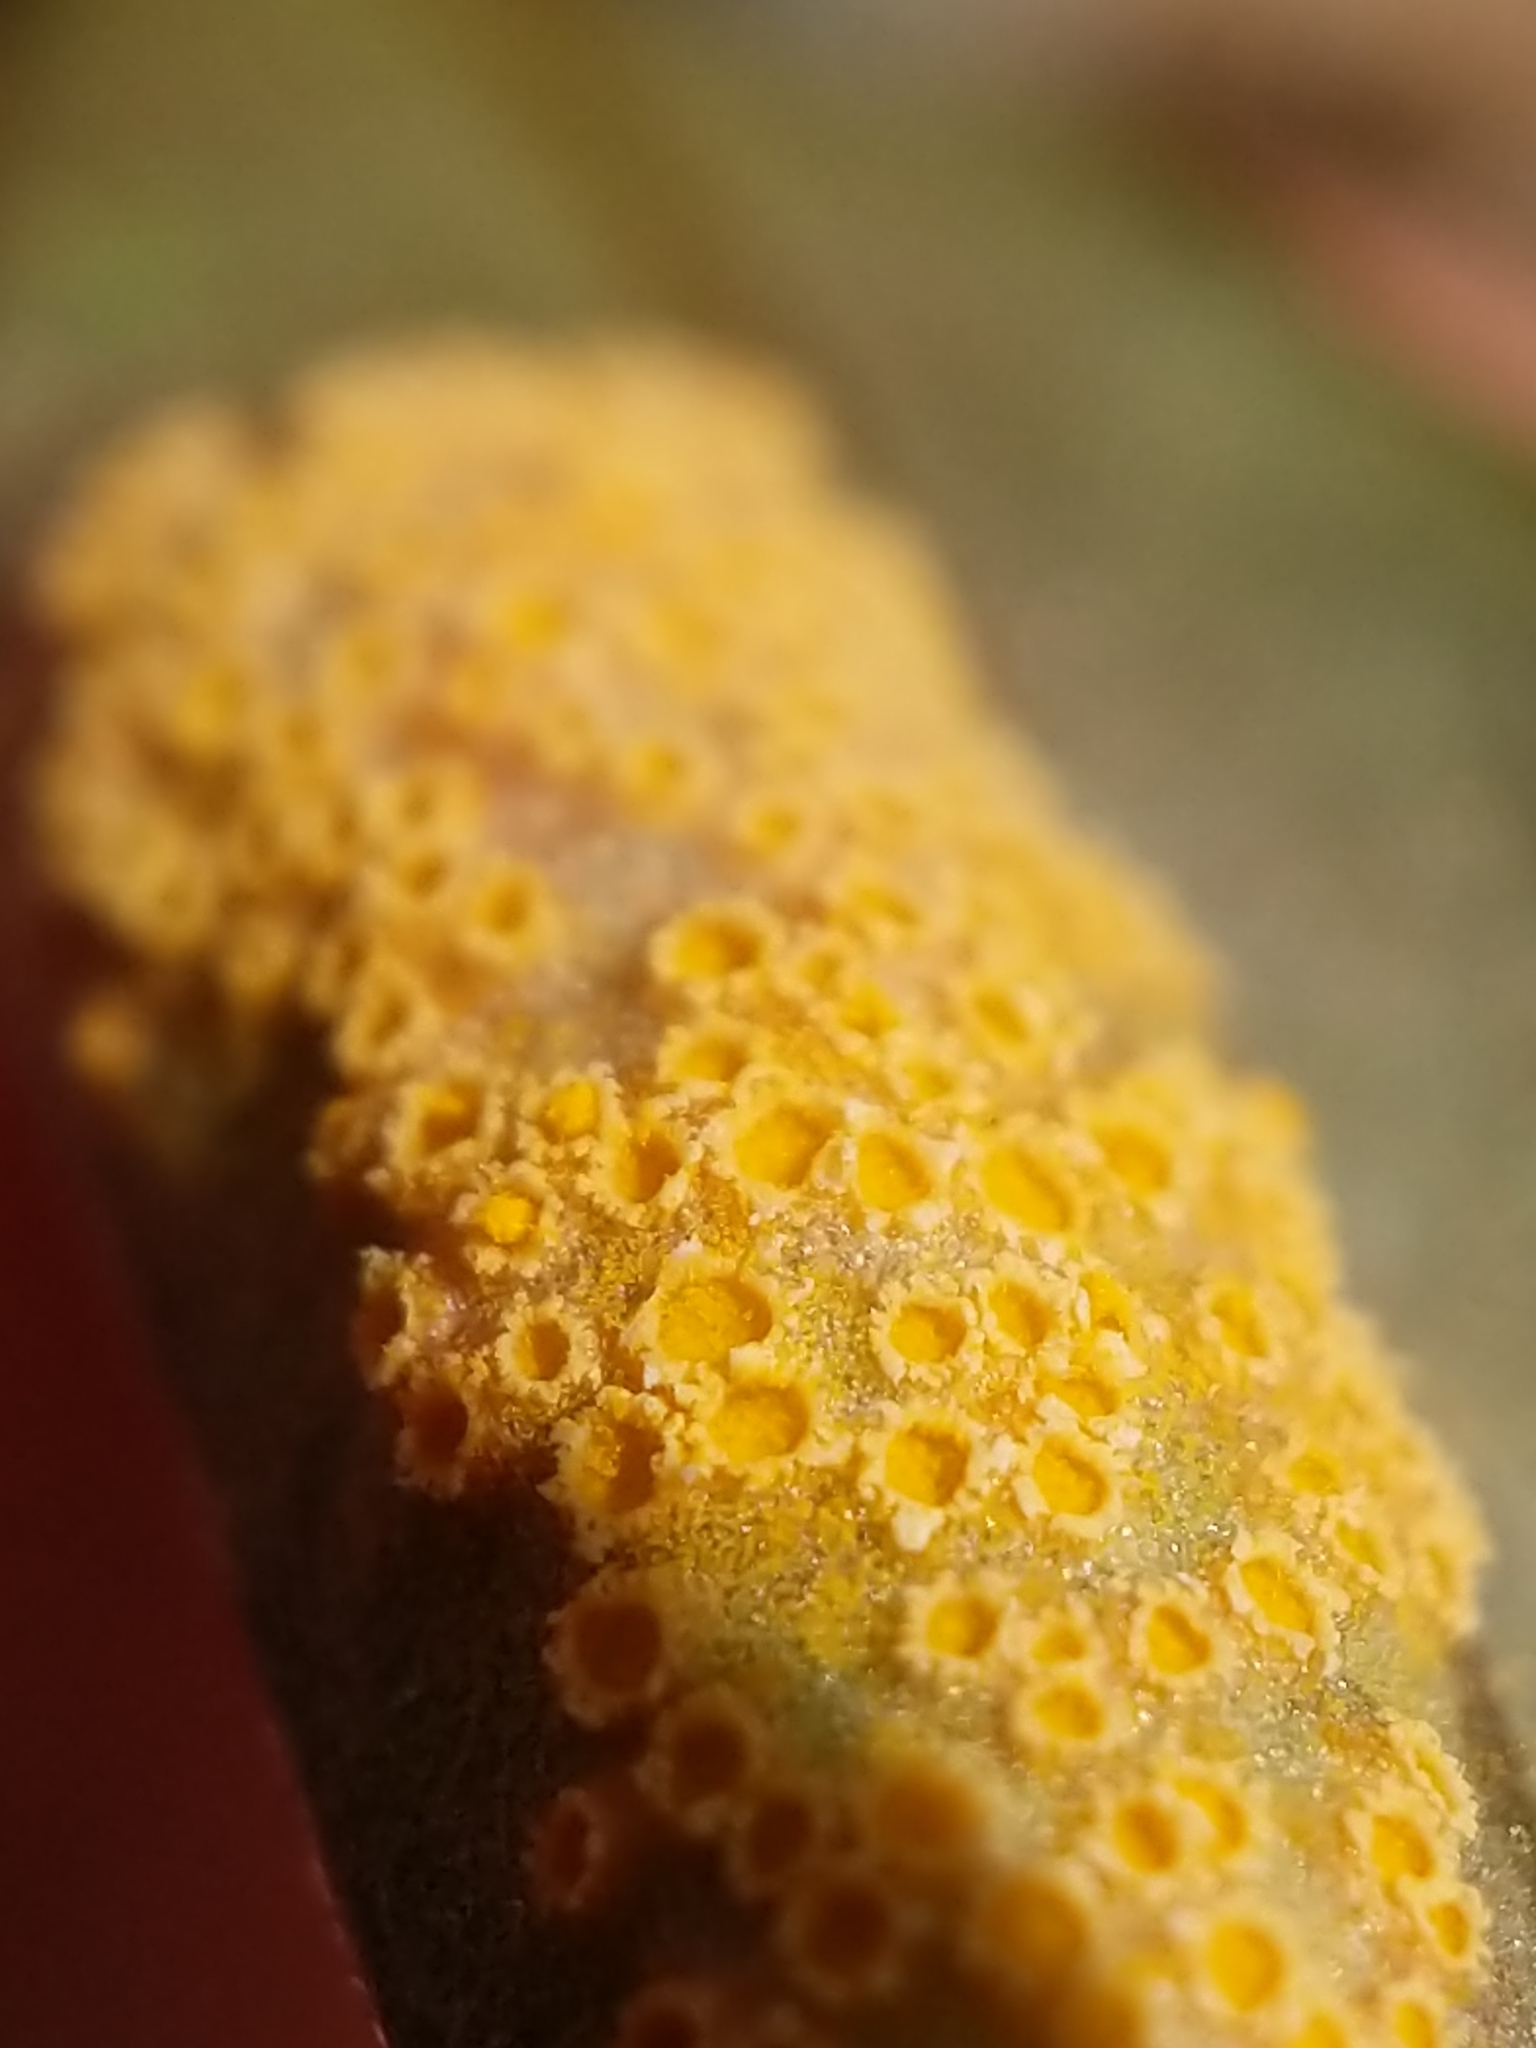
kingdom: Fungi
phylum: Basidiomycota
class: Pucciniomycetes
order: Pucciniales
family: Pucciniaceae
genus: Puccinia
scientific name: Puccinia mariae-wilsoniae
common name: Spring beauty rust
